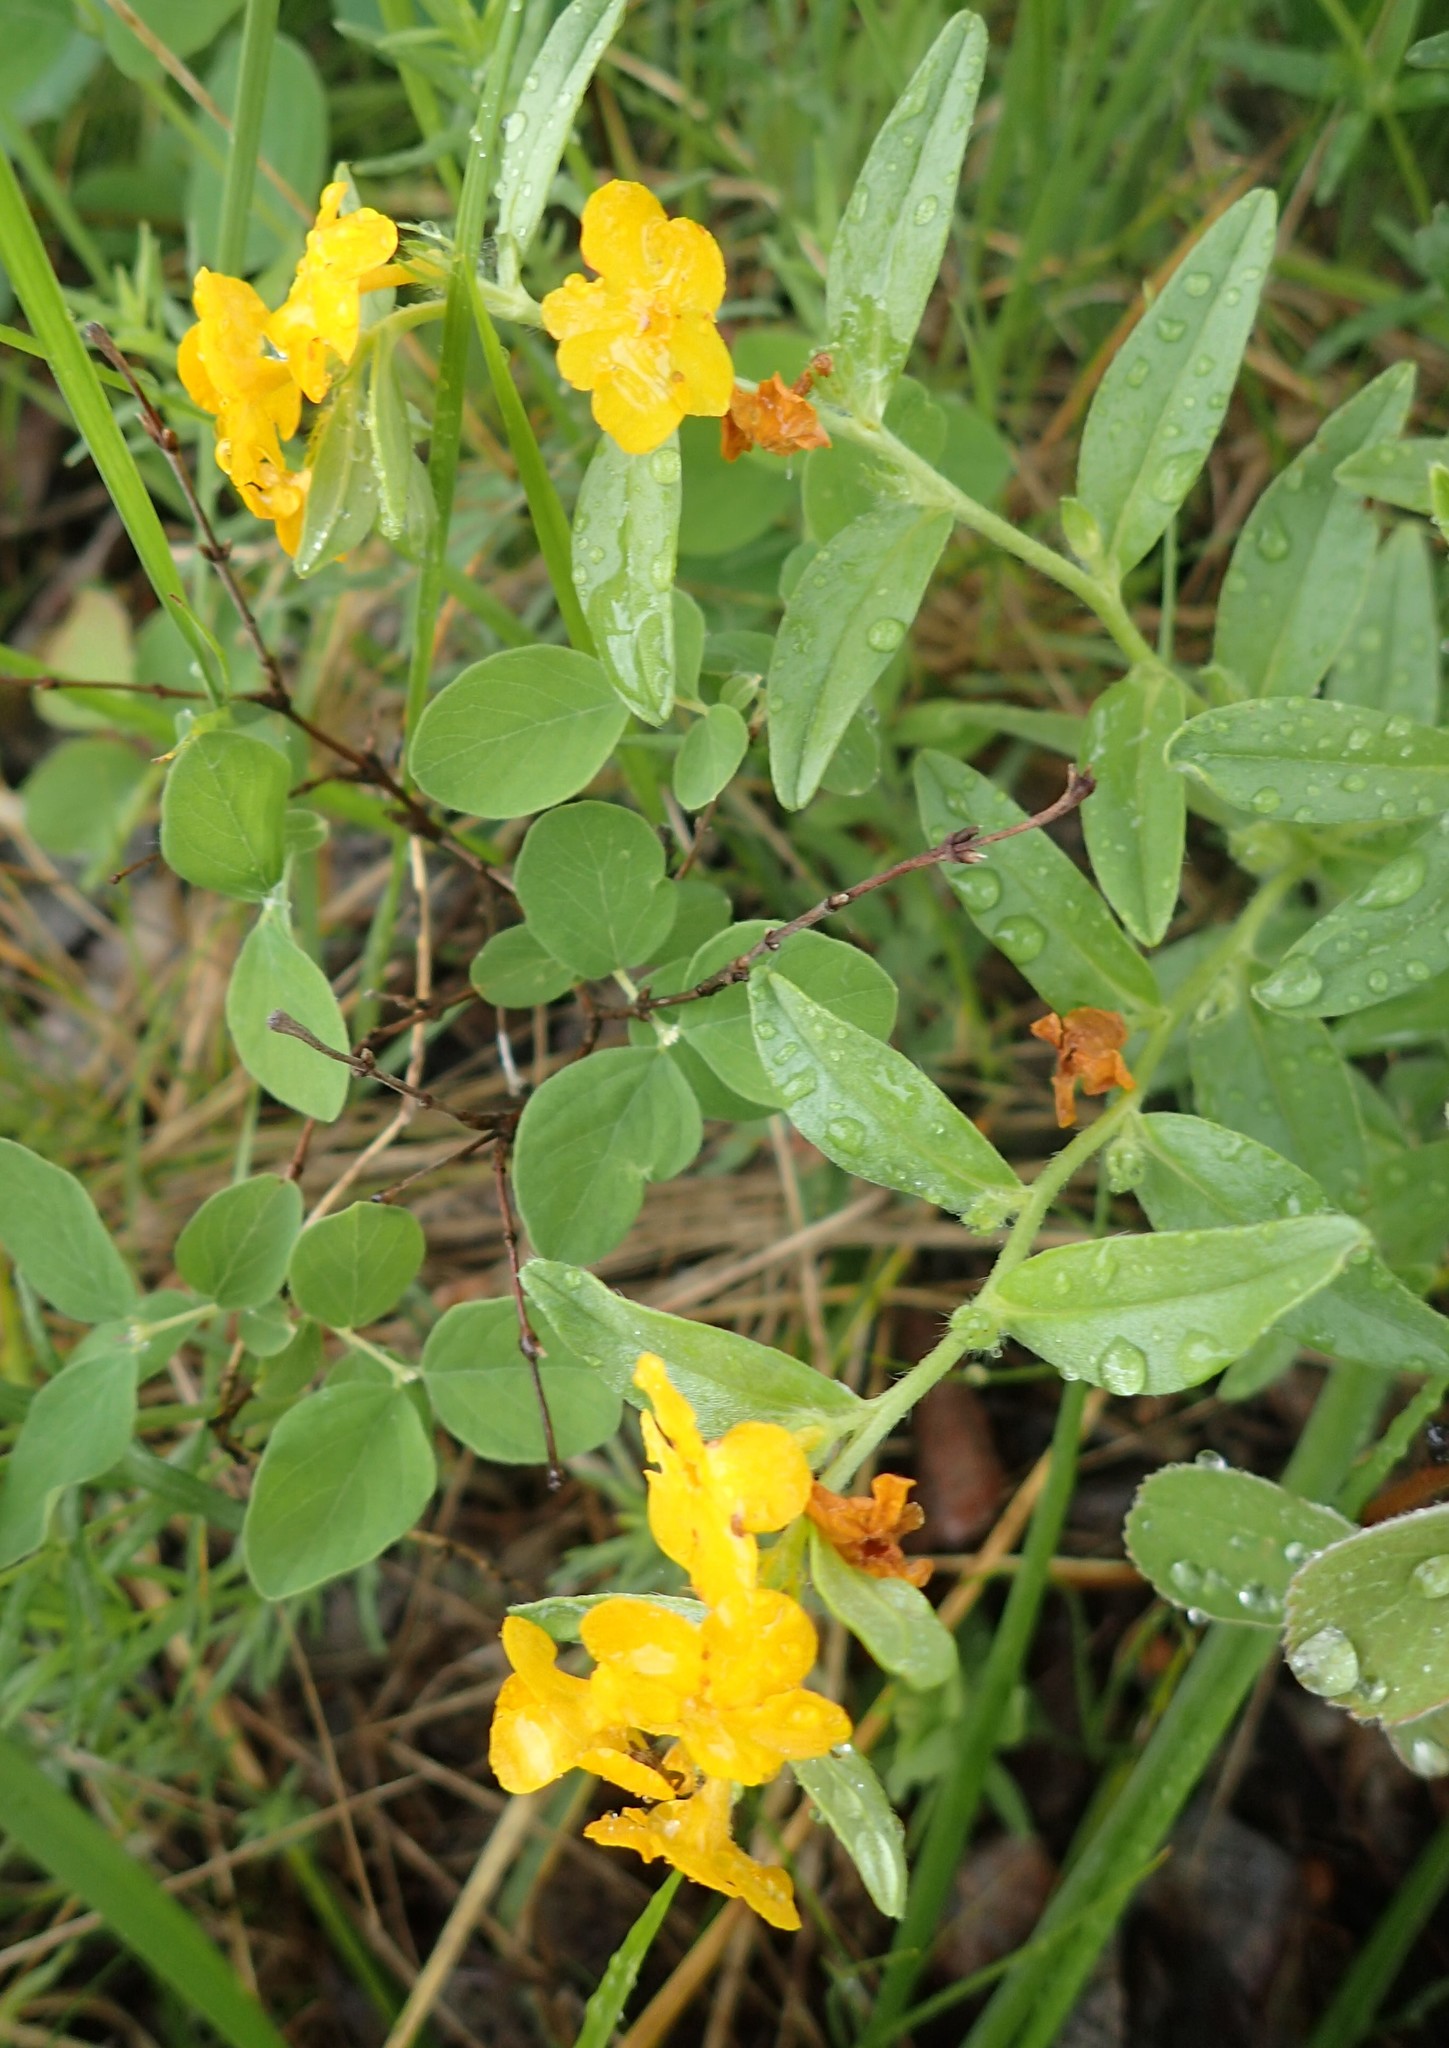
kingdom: Plantae
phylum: Tracheophyta
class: Magnoliopsida
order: Boraginales
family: Boraginaceae
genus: Lithospermum
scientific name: Lithospermum canescens
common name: Hoary puccoon
